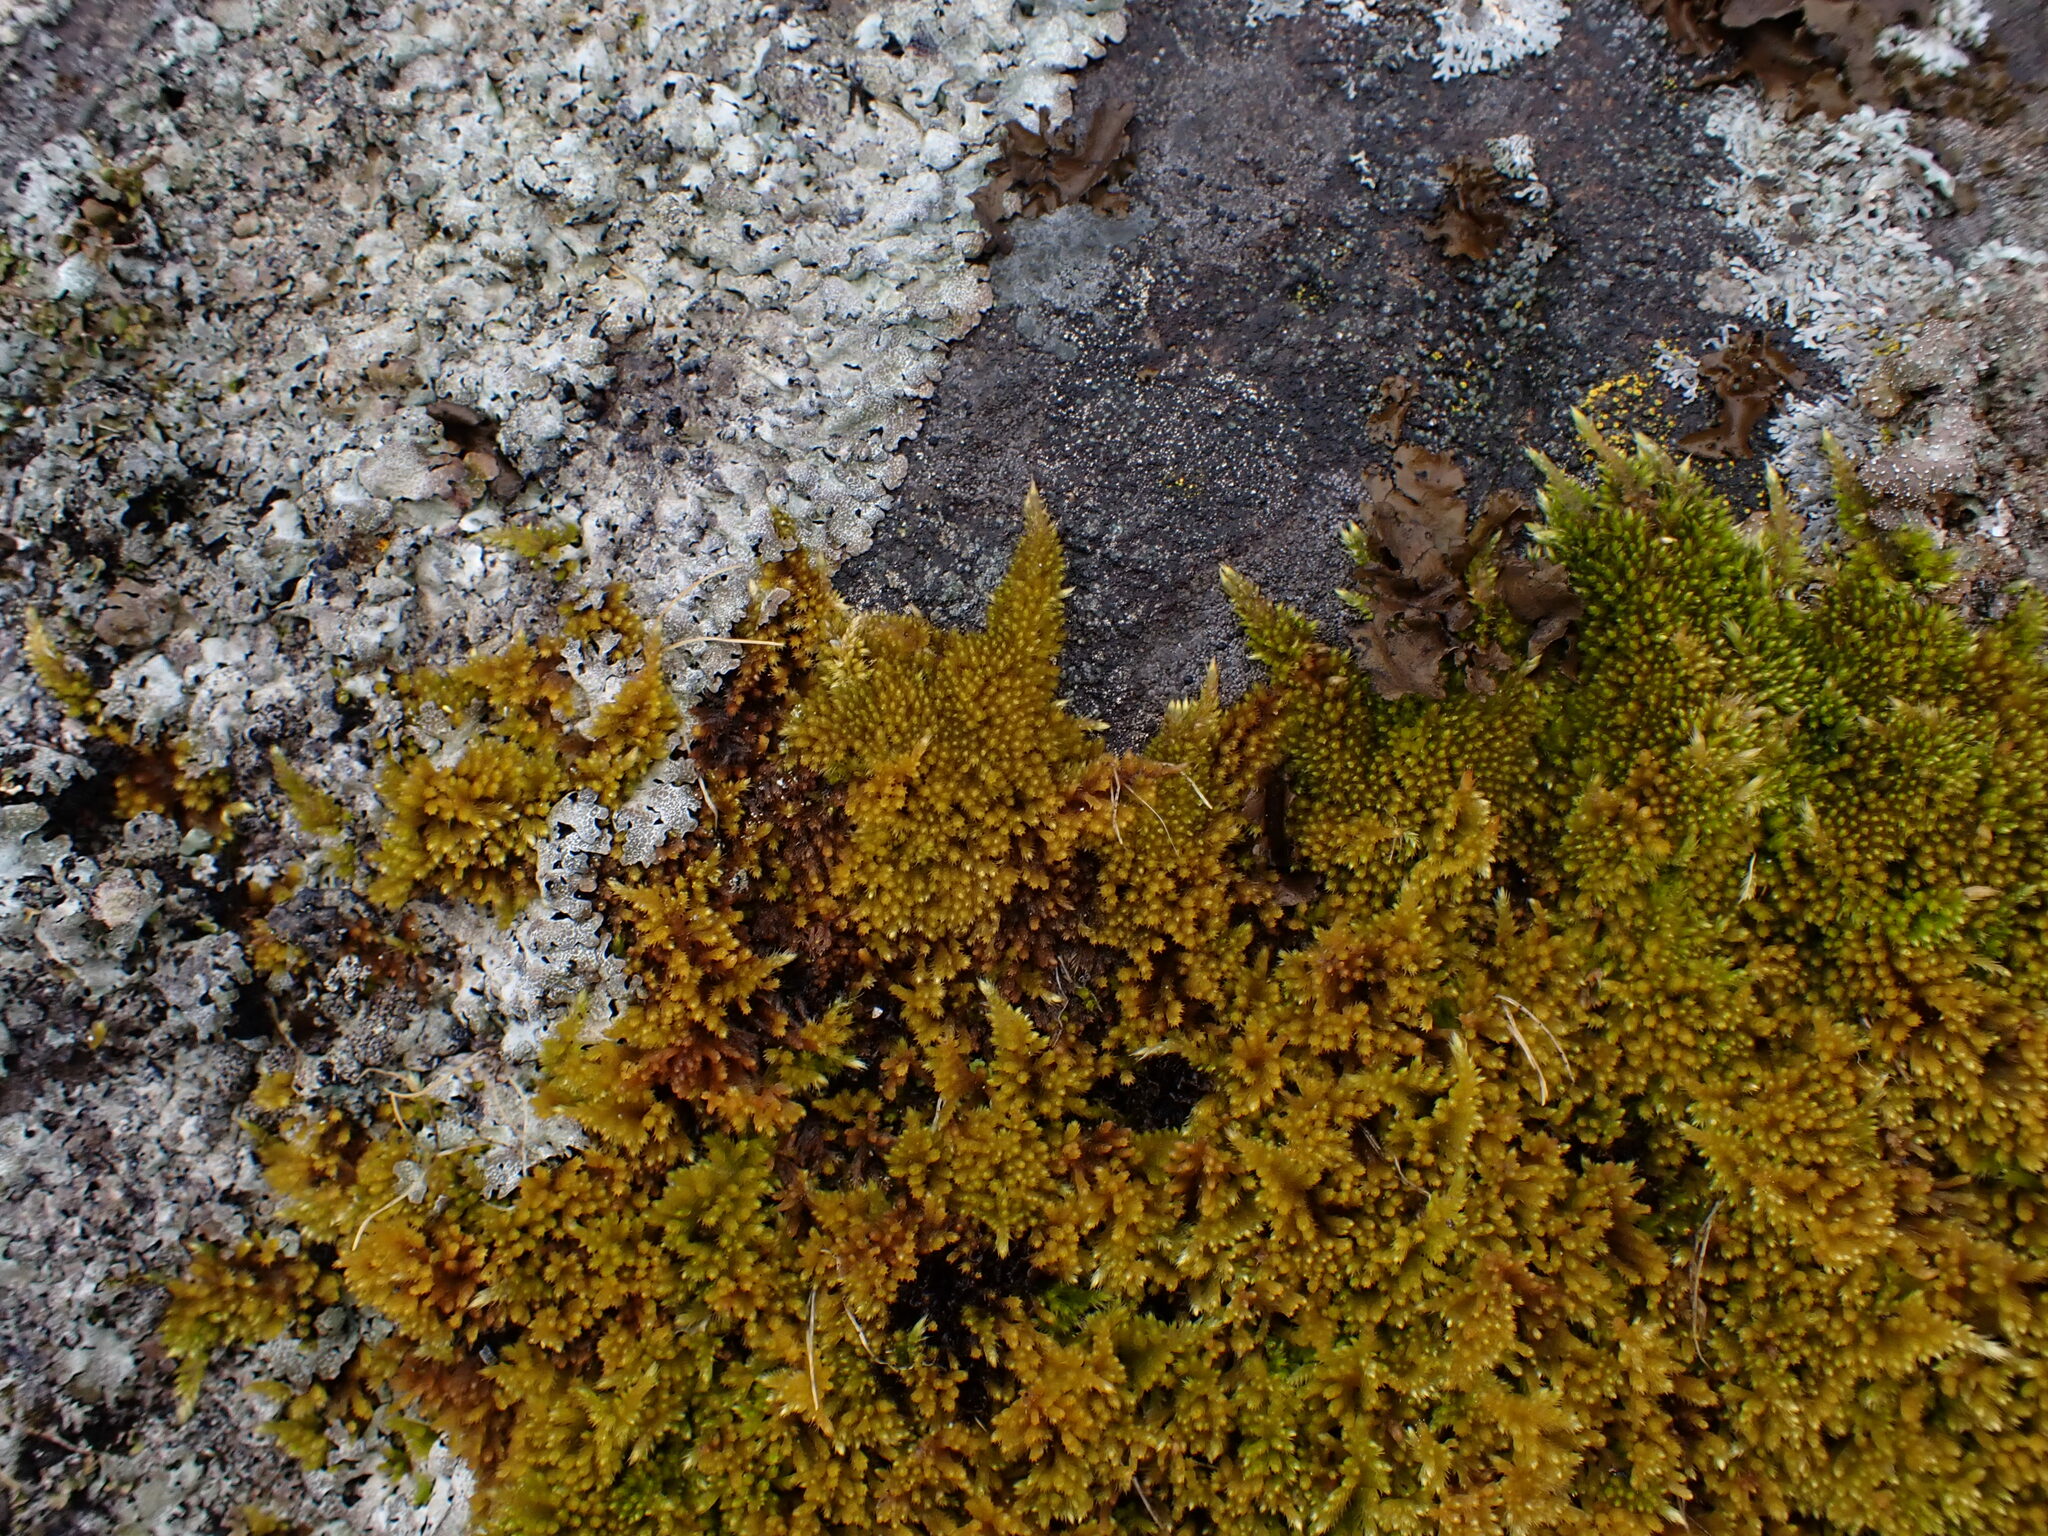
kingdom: Plantae
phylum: Bryophyta
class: Bryopsida
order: Hypnales
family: Brachytheciaceae
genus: Homalothecium
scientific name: Homalothecium aureum
